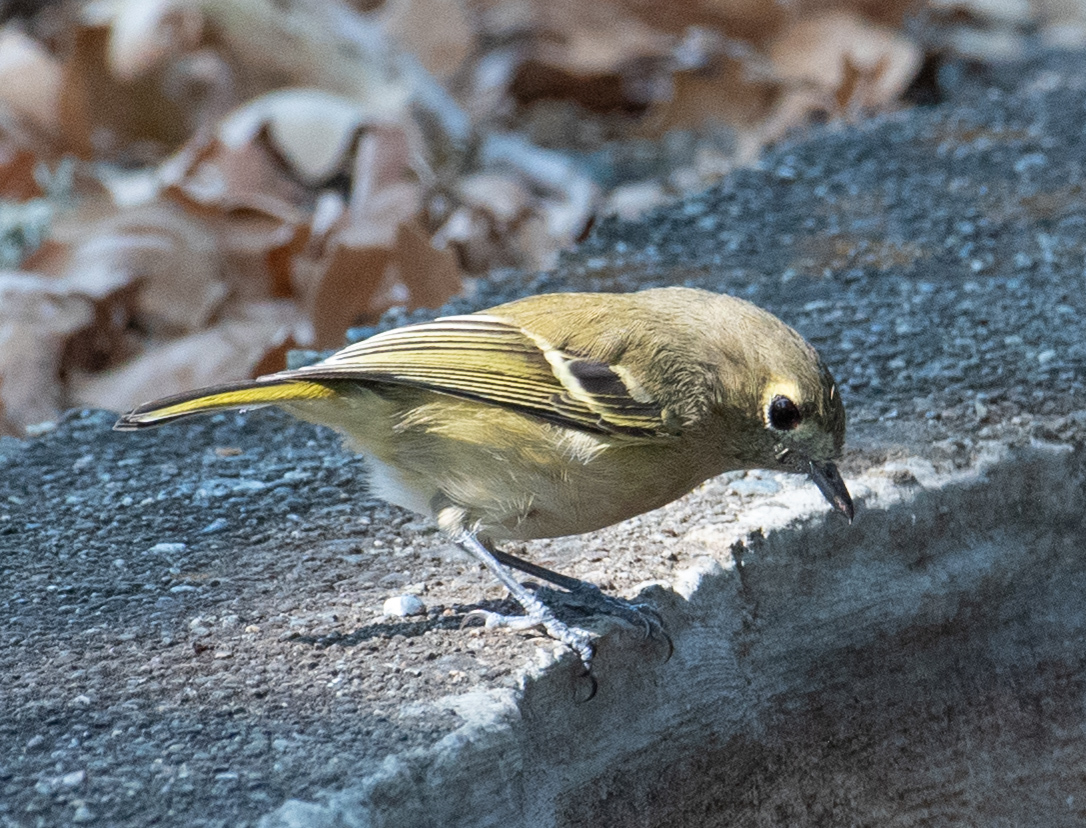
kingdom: Animalia
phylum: Chordata
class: Aves
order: Passeriformes
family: Vireonidae
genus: Vireo
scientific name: Vireo huttoni
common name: Hutton's vireo
